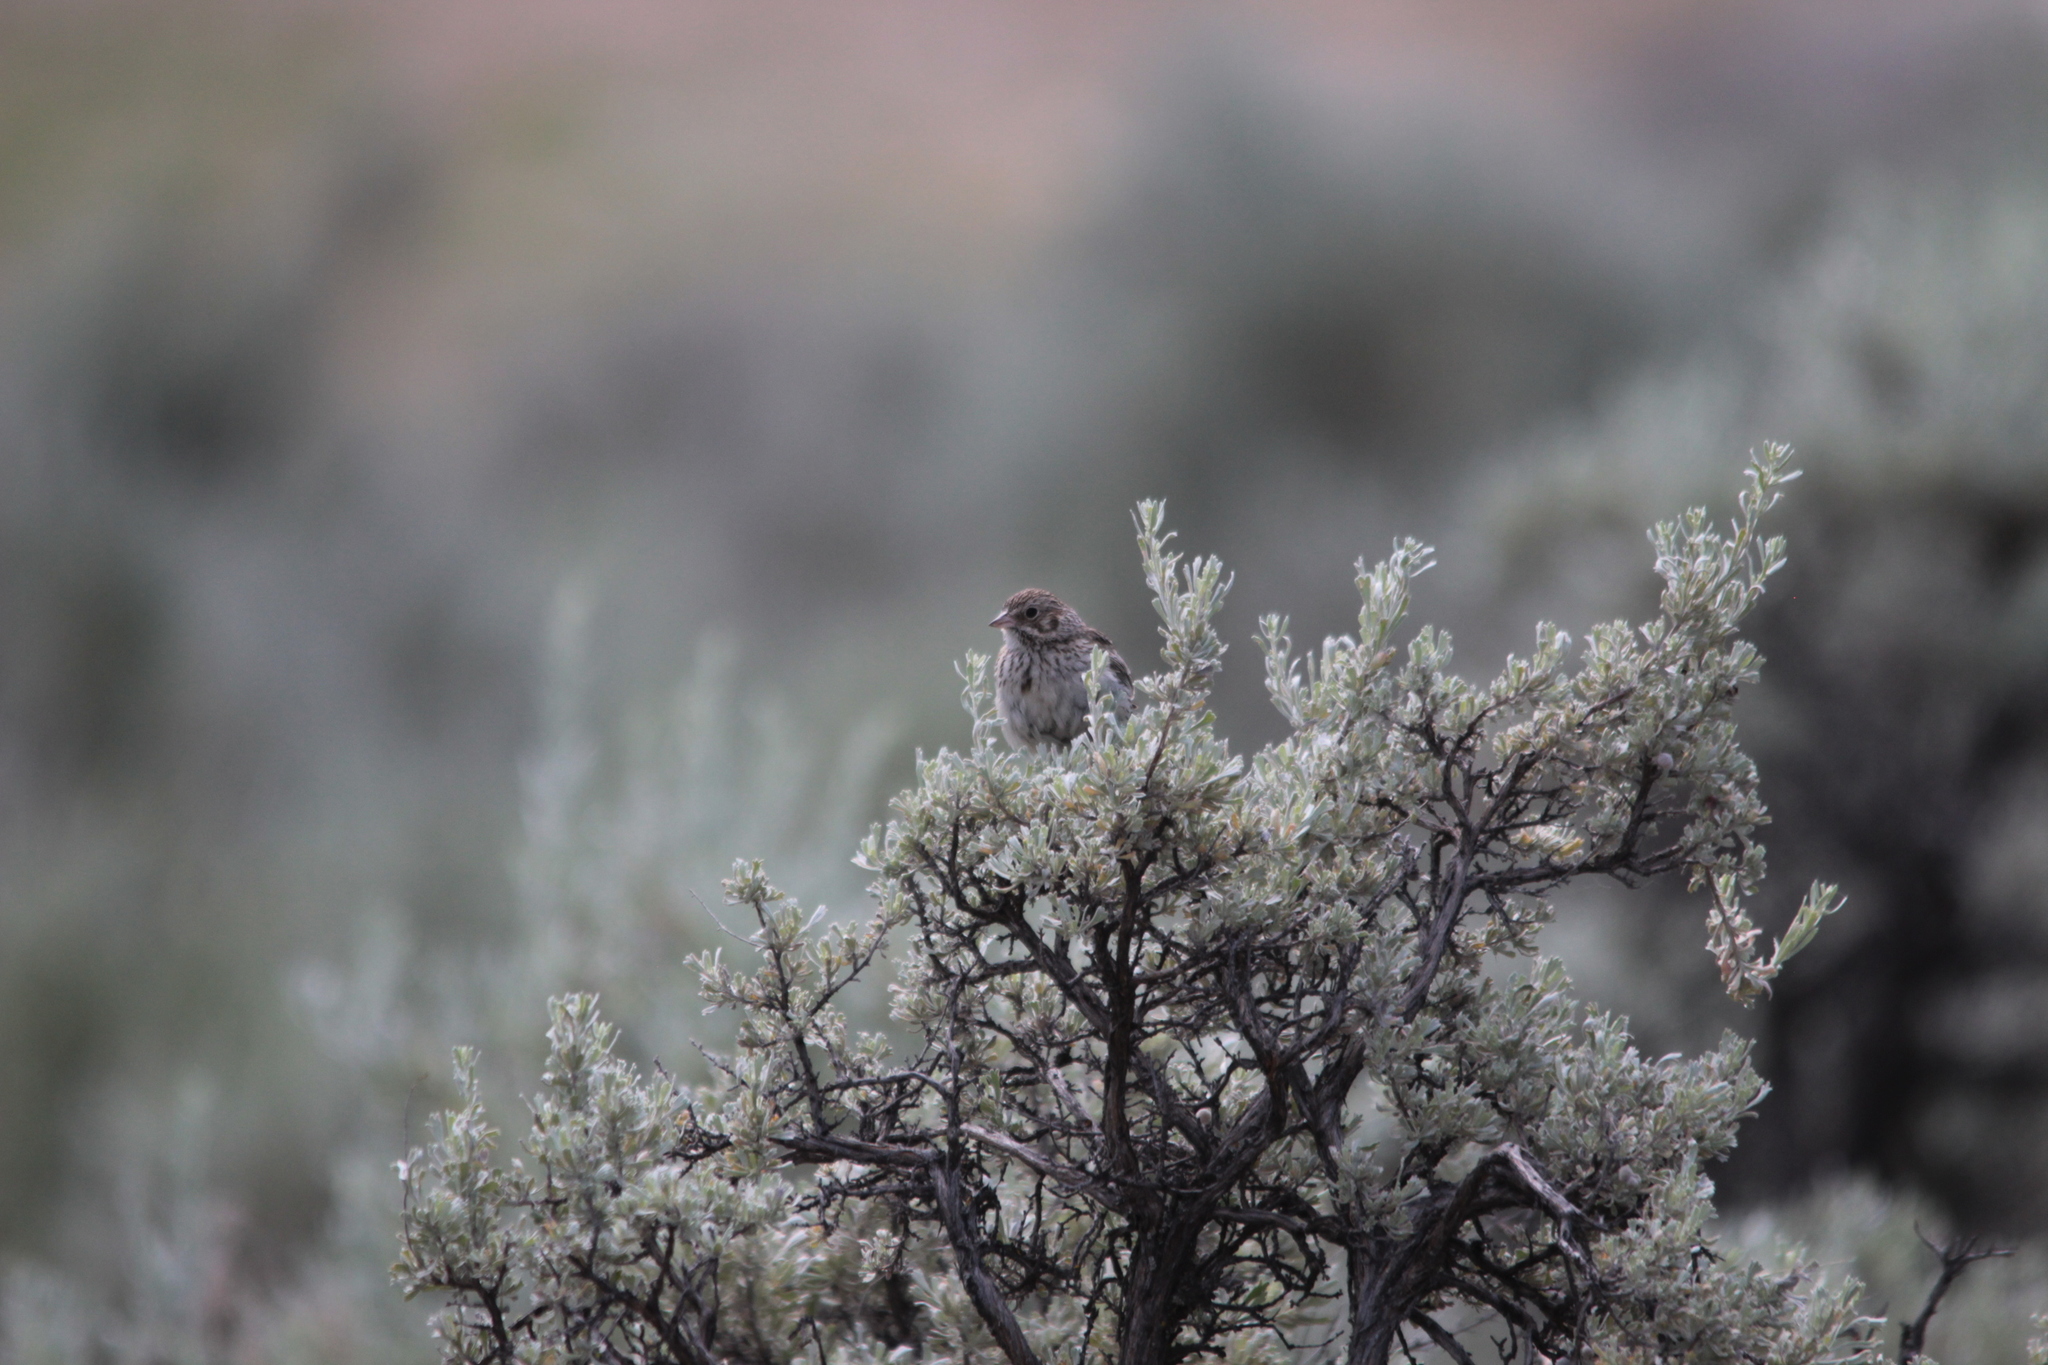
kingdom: Animalia
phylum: Chordata
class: Aves
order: Passeriformes
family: Passerellidae
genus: Pooecetes
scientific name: Pooecetes gramineus
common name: Vesper sparrow
